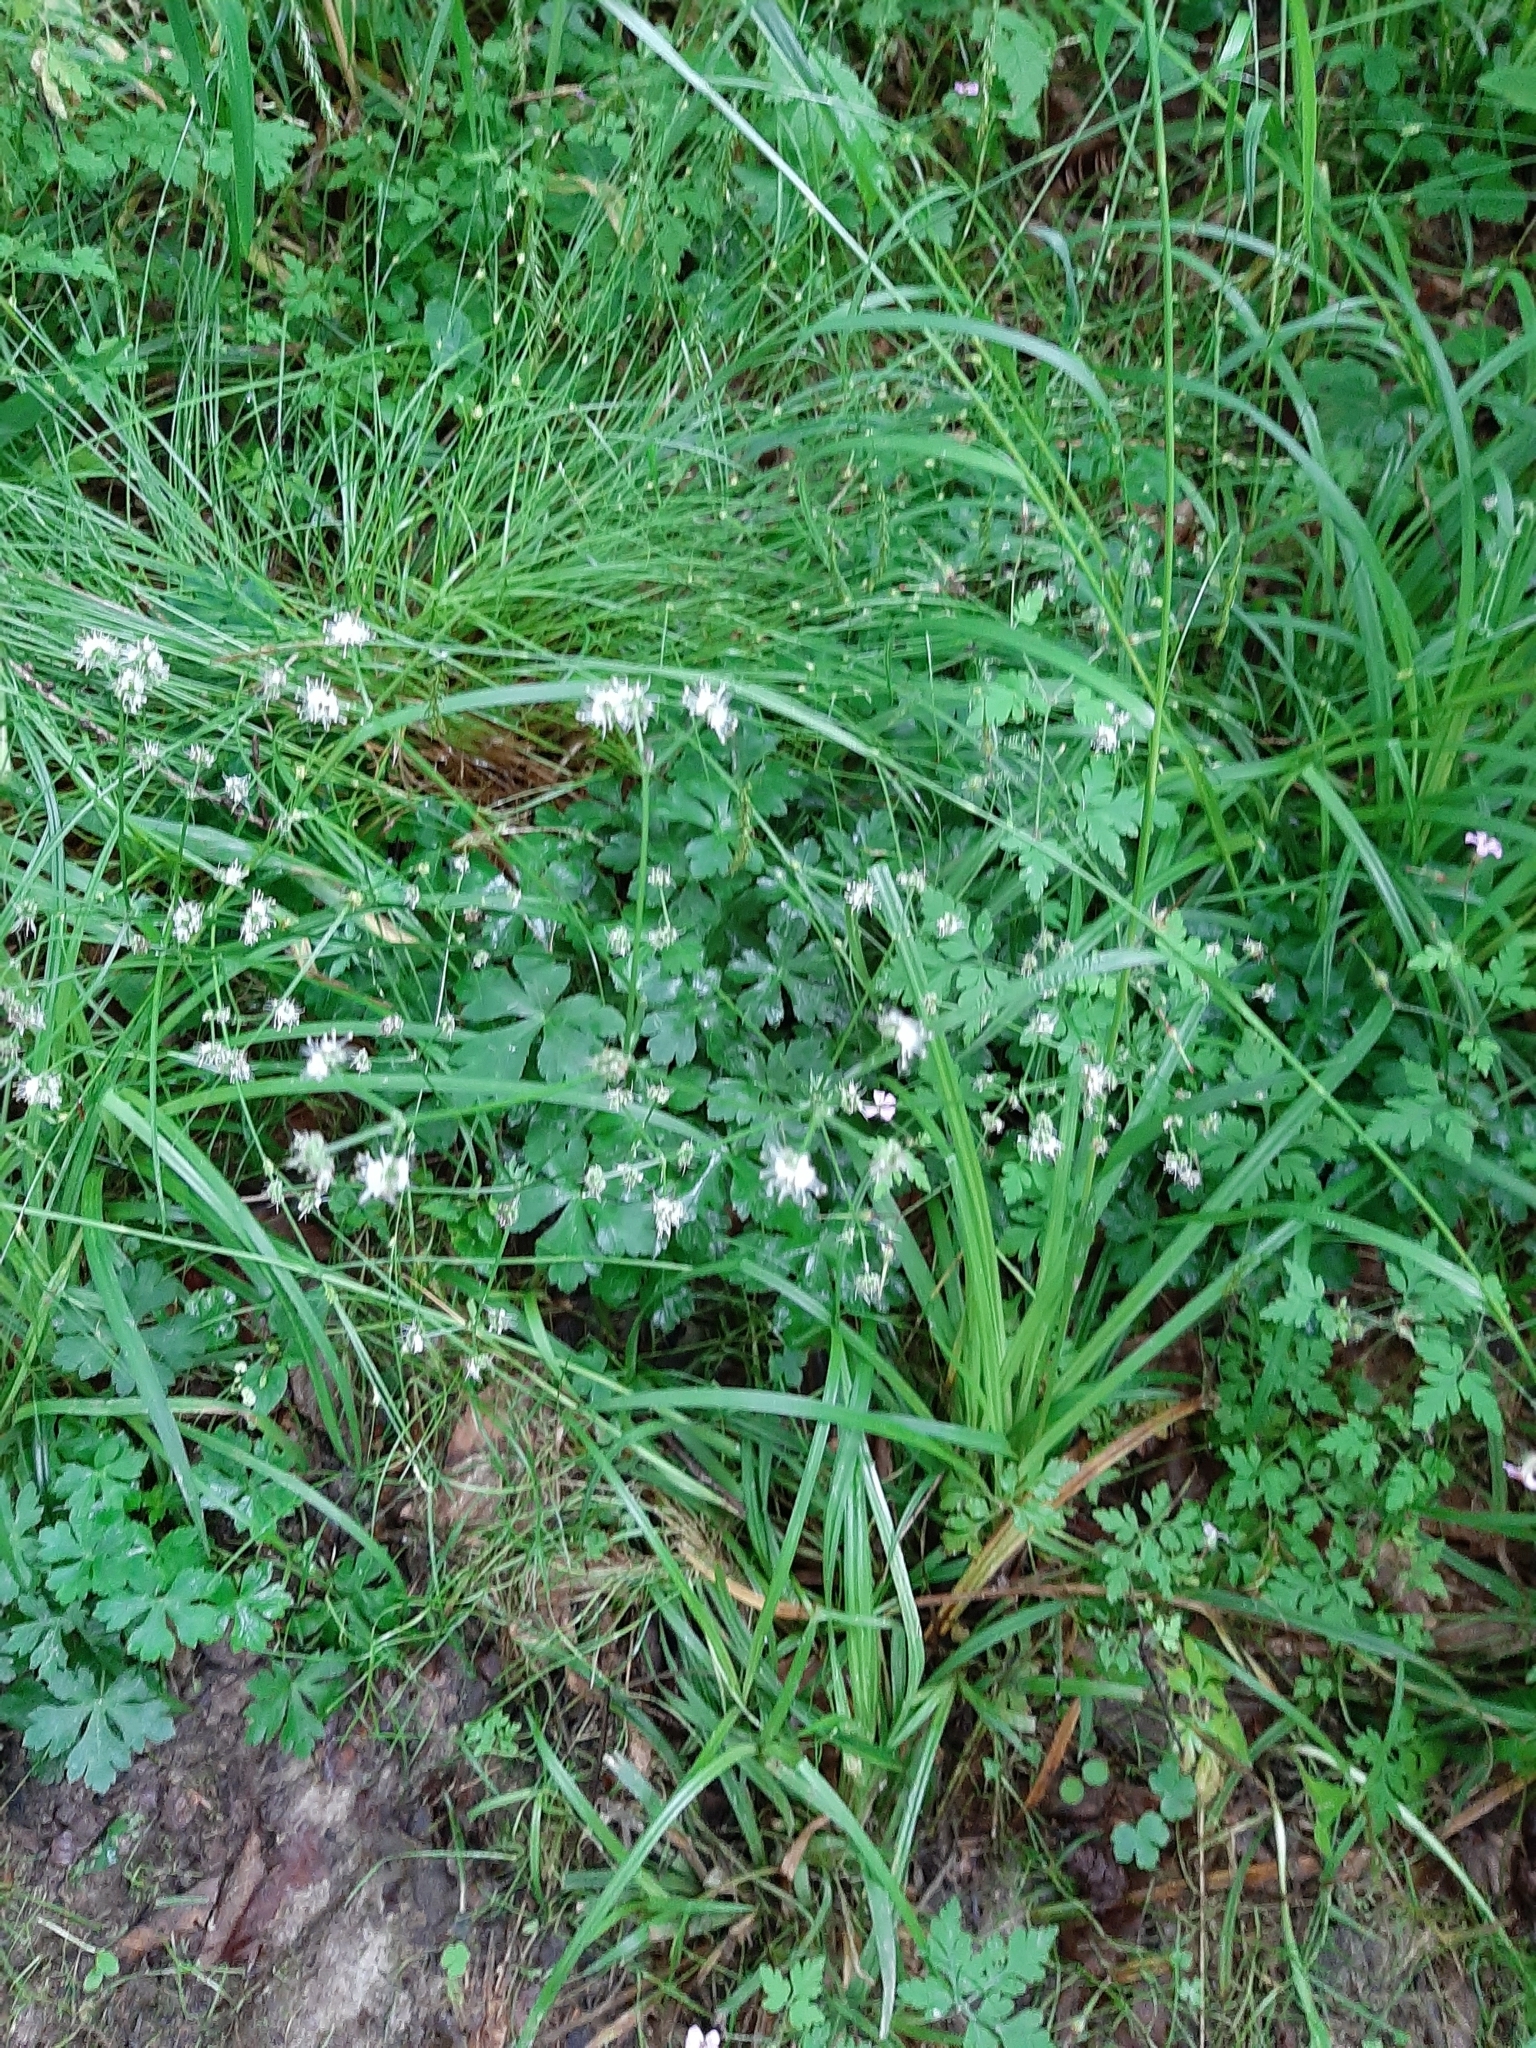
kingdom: Plantae
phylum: Tracheophyta
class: Magnoliopsida
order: Apiales
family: Apiaceae
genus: Sanicula
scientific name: Sanicula europaea
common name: Sanicle
